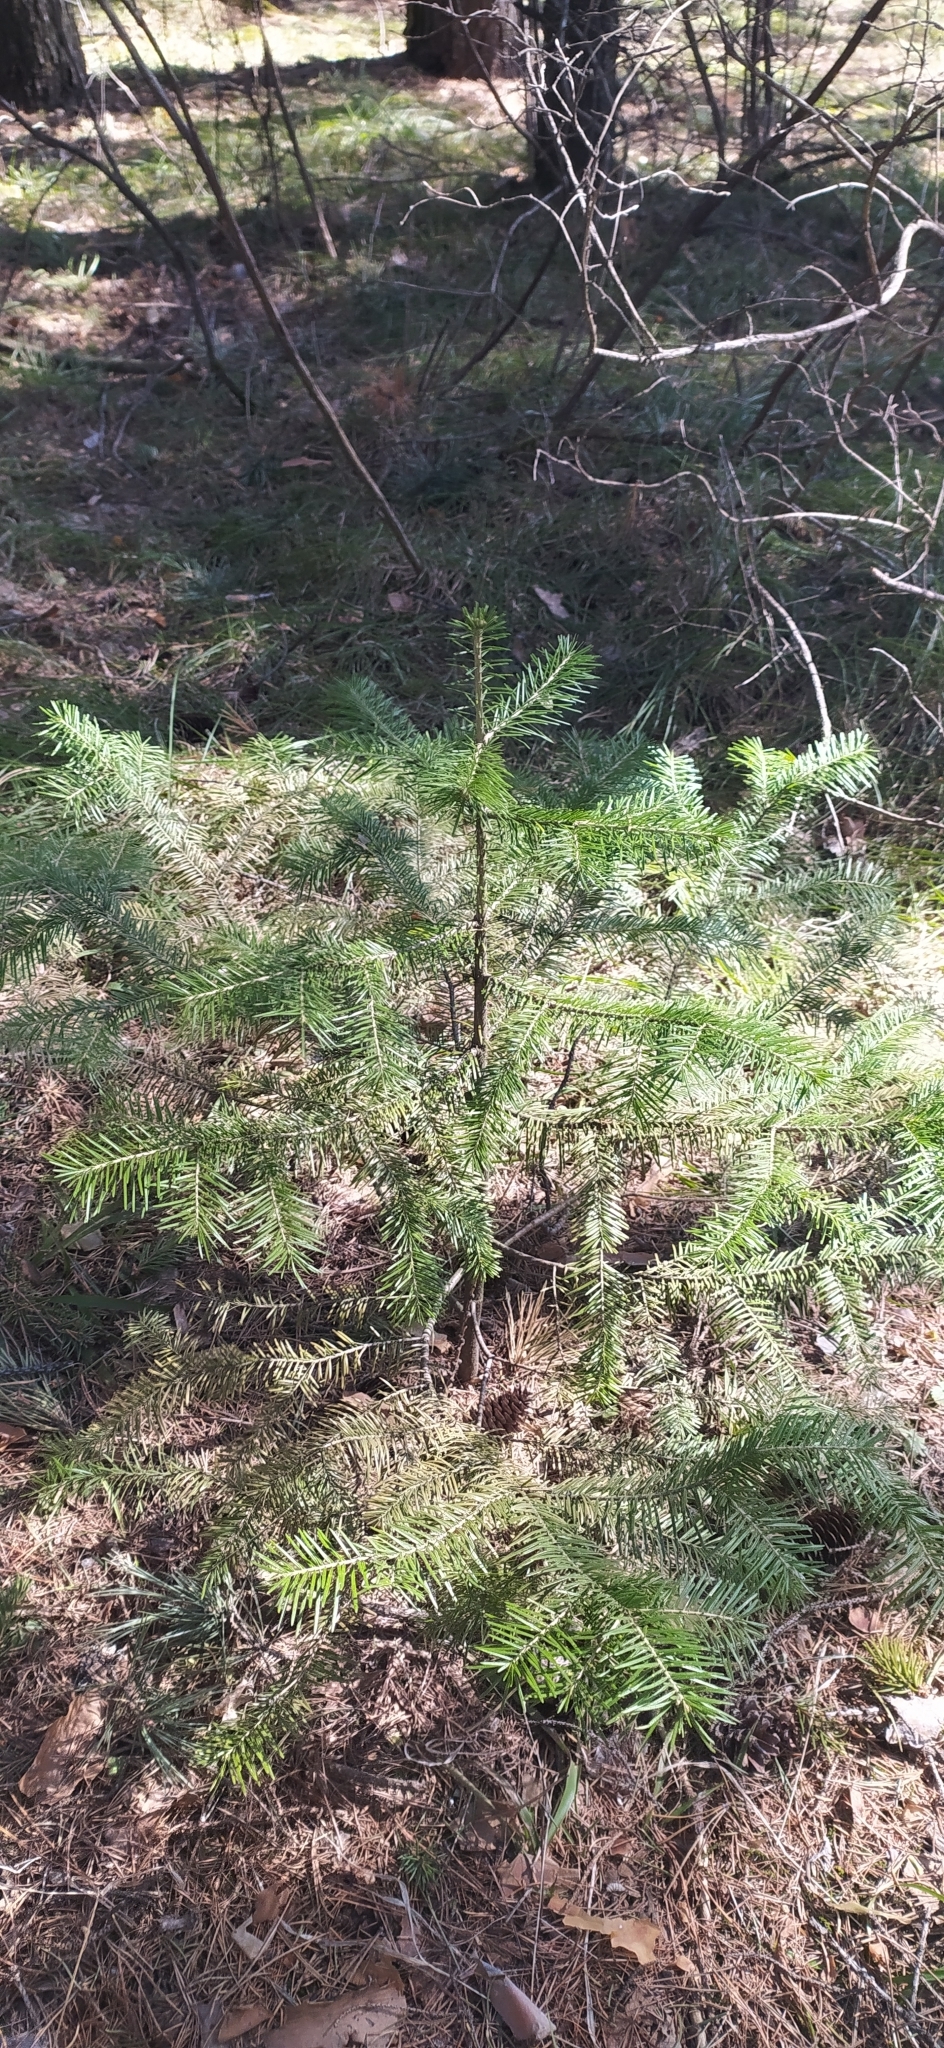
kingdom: Plantae
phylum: Tracheophyta
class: Pinopsida
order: Pinales
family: Pinaceae
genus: Abies
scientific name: Abies sibirica
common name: Siberian fir
